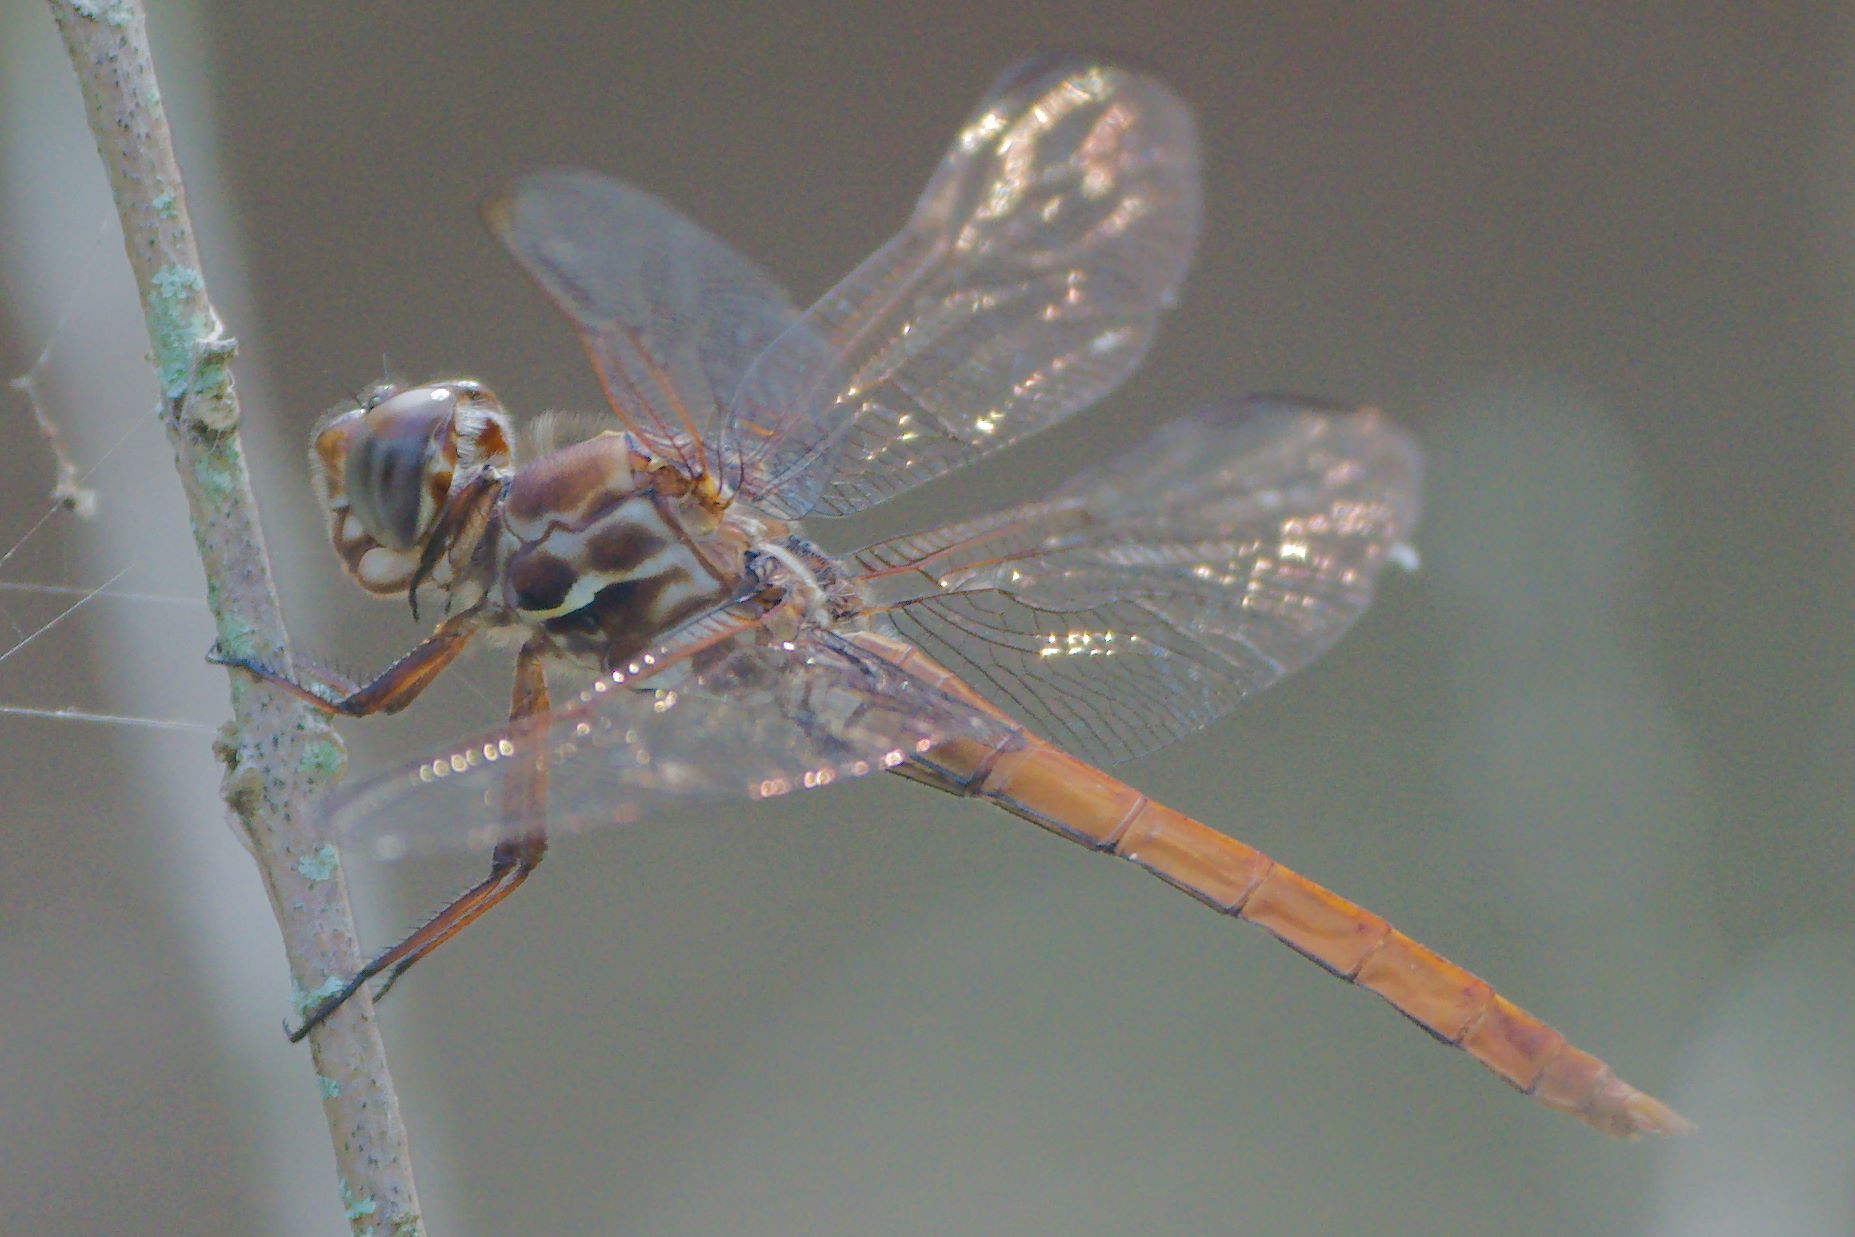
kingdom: Animalia
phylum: Arthropoda
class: Insecta
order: Odonata
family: Libellulidae
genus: Orthemis
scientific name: Orthemis ferruginea
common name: Roseate skimmer
